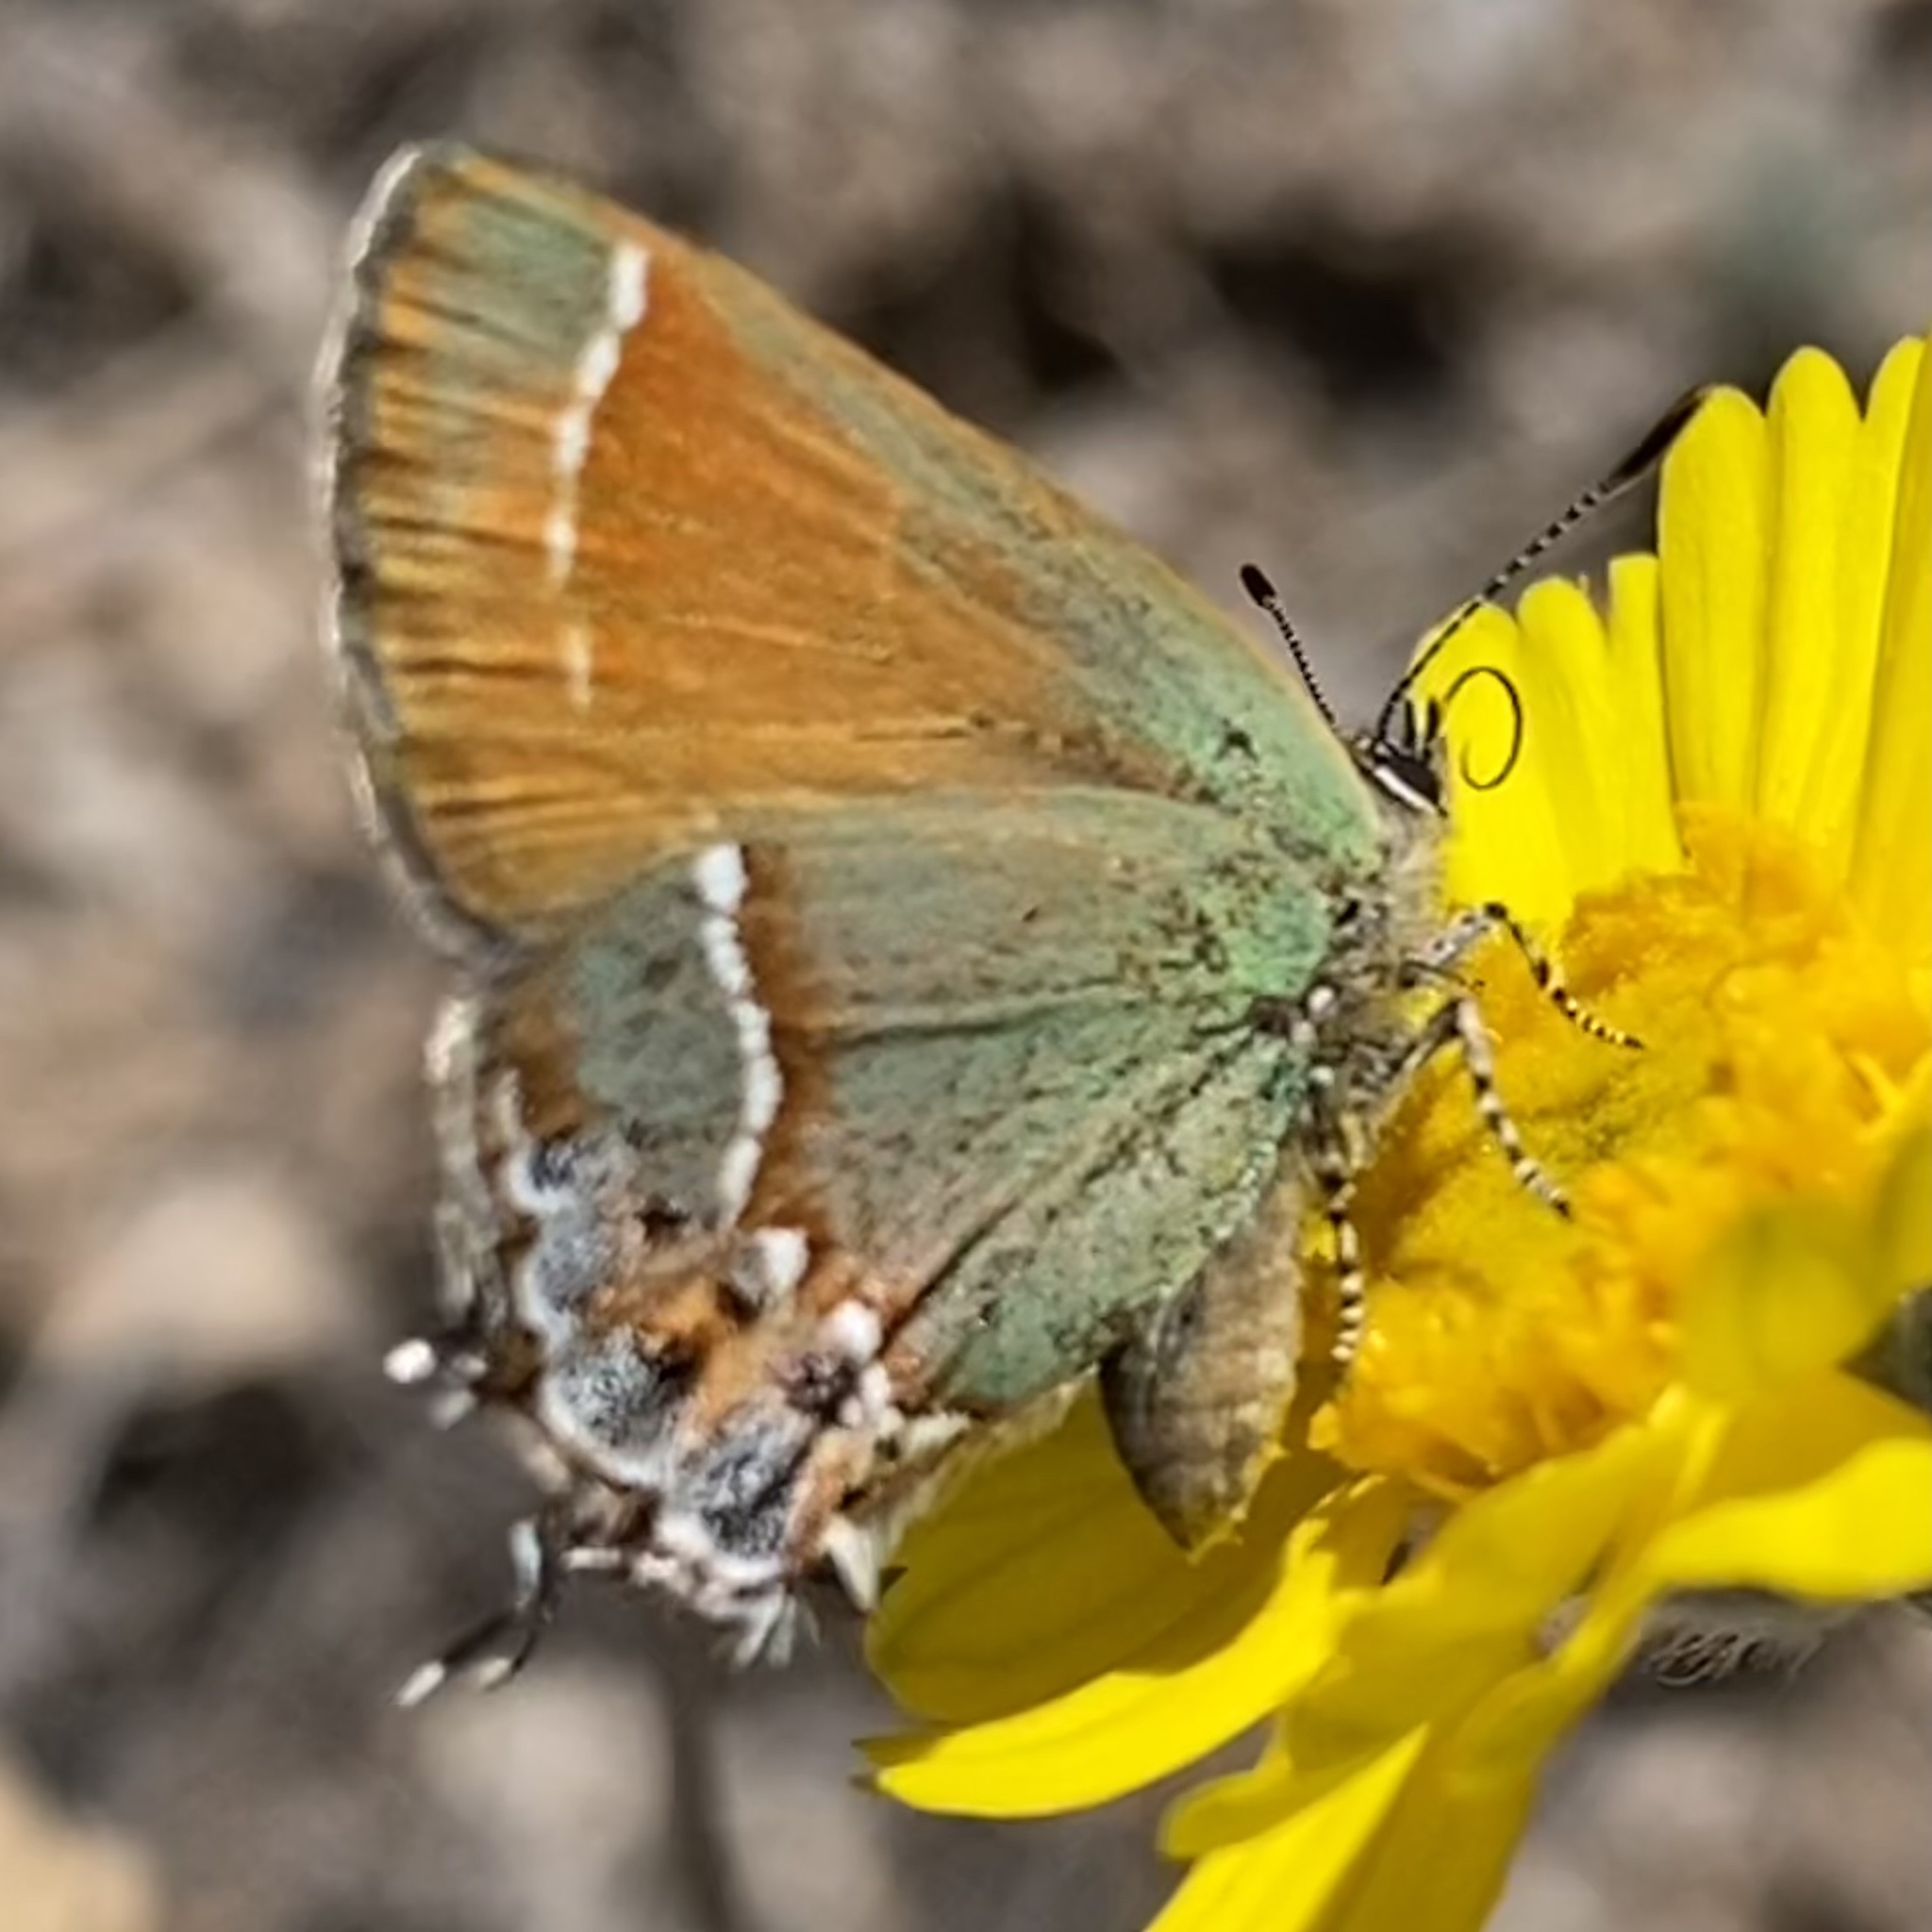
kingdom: Animalia
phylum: Arthropoda
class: Insecta
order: Lepidoptera
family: Lycaenidae
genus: Mitoura
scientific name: Mitoura gryneus
